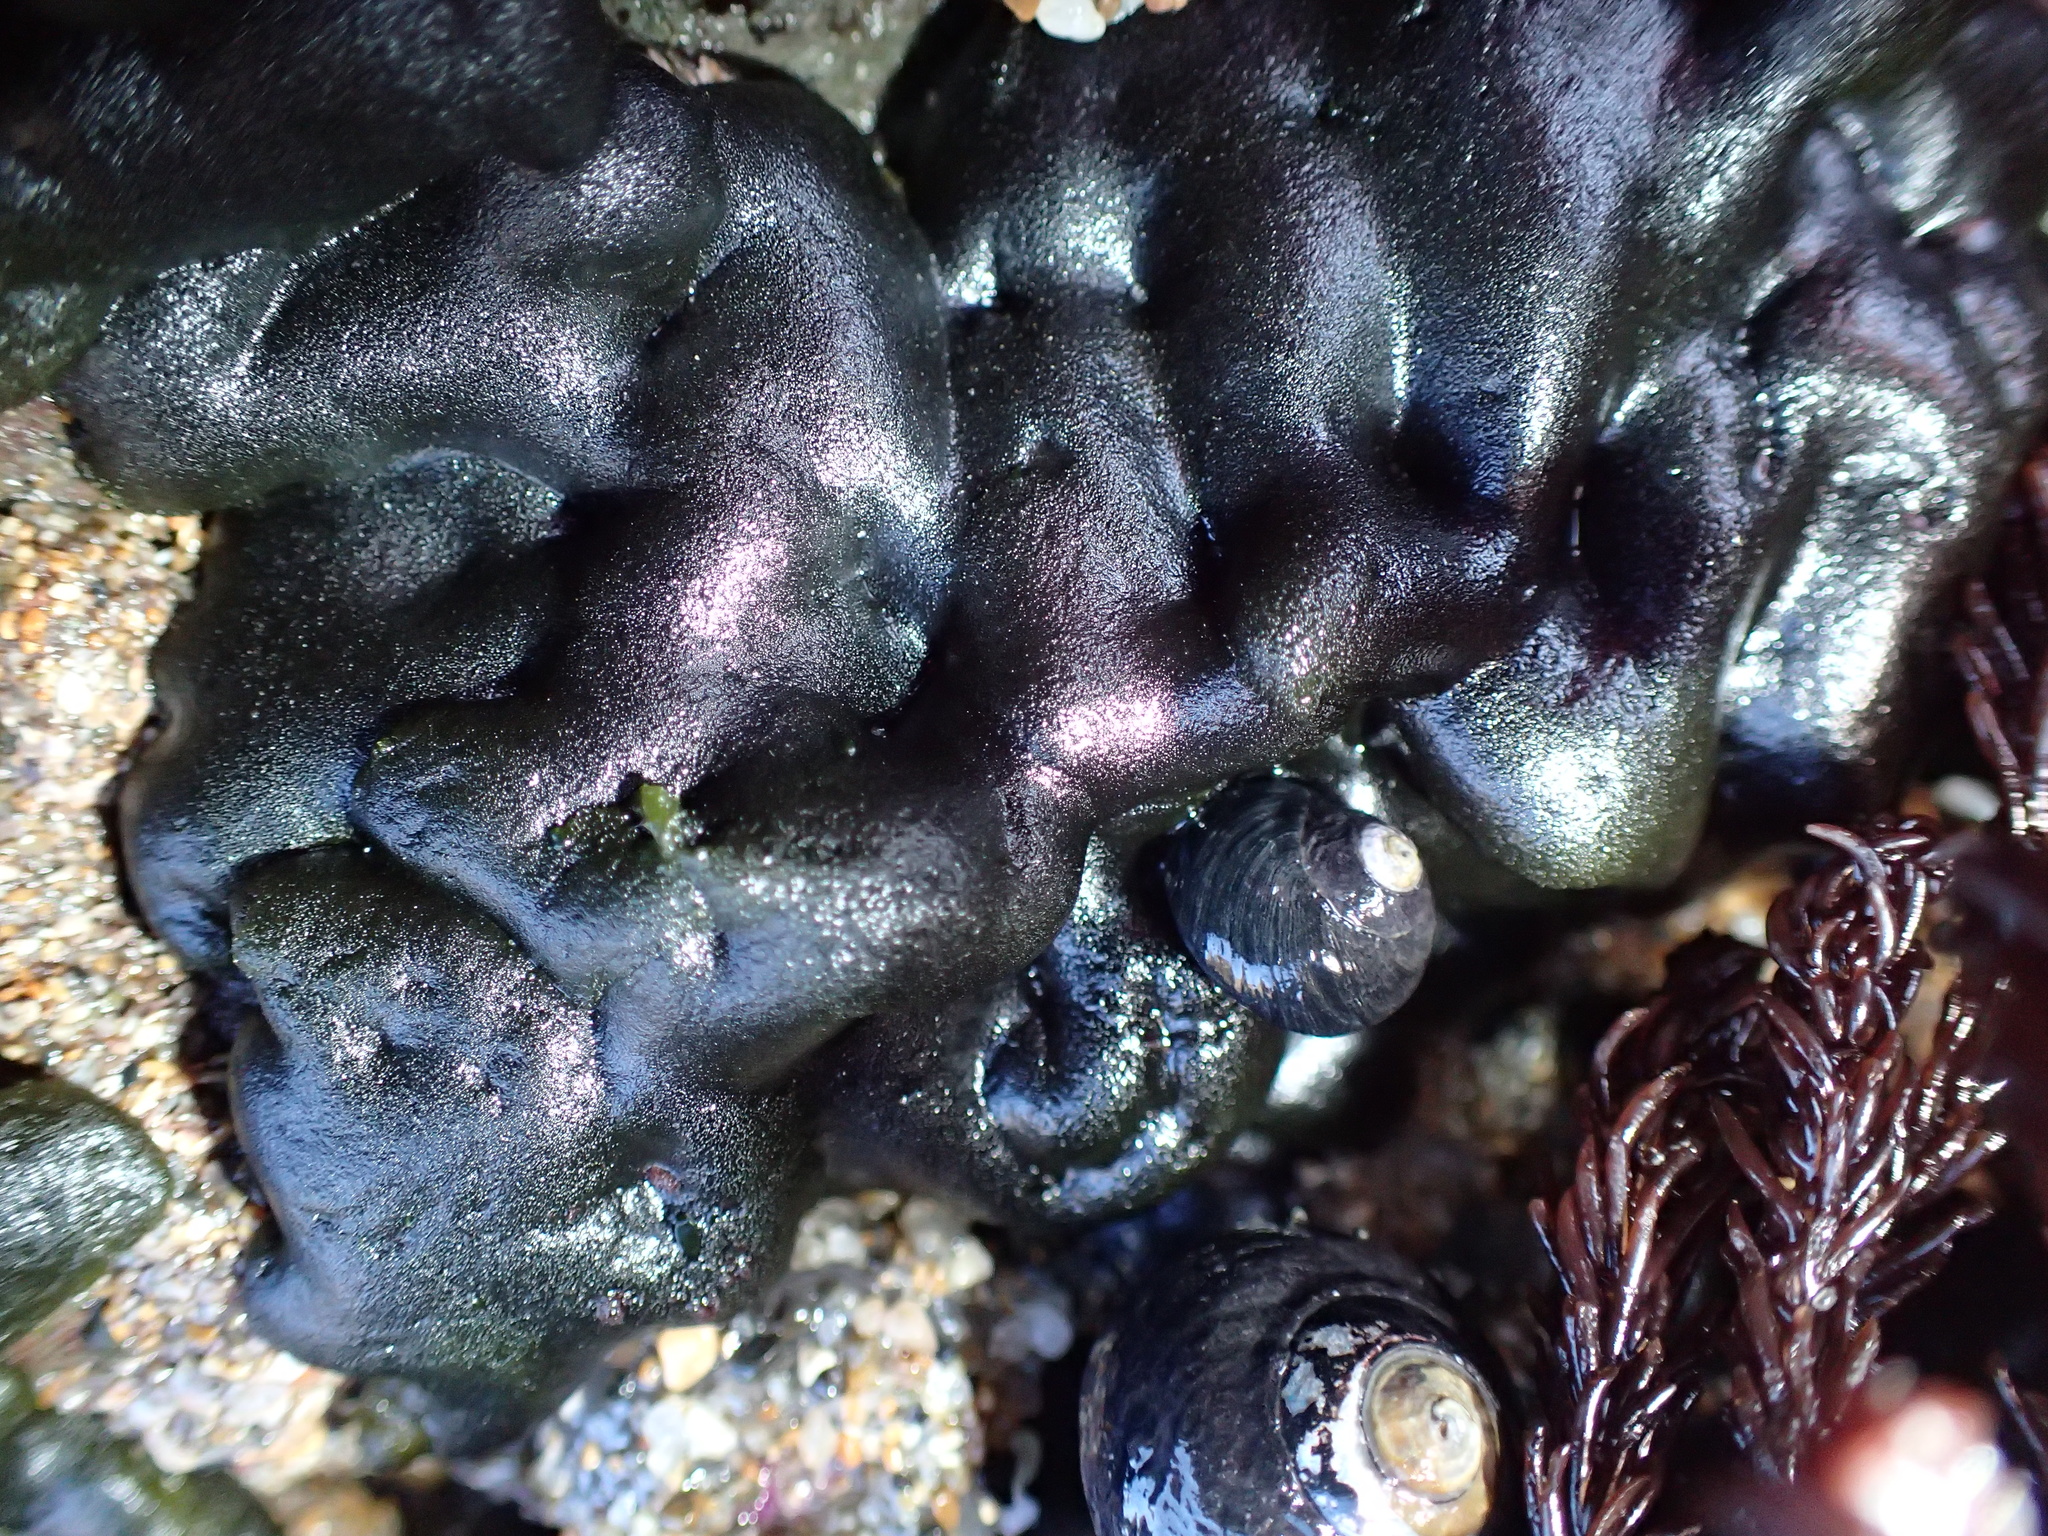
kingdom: Plantae
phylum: Chlorophyta
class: Ulvophyceae
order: Bryopsidales
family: Codiaceae
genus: Codium
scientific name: Codium setchellii
